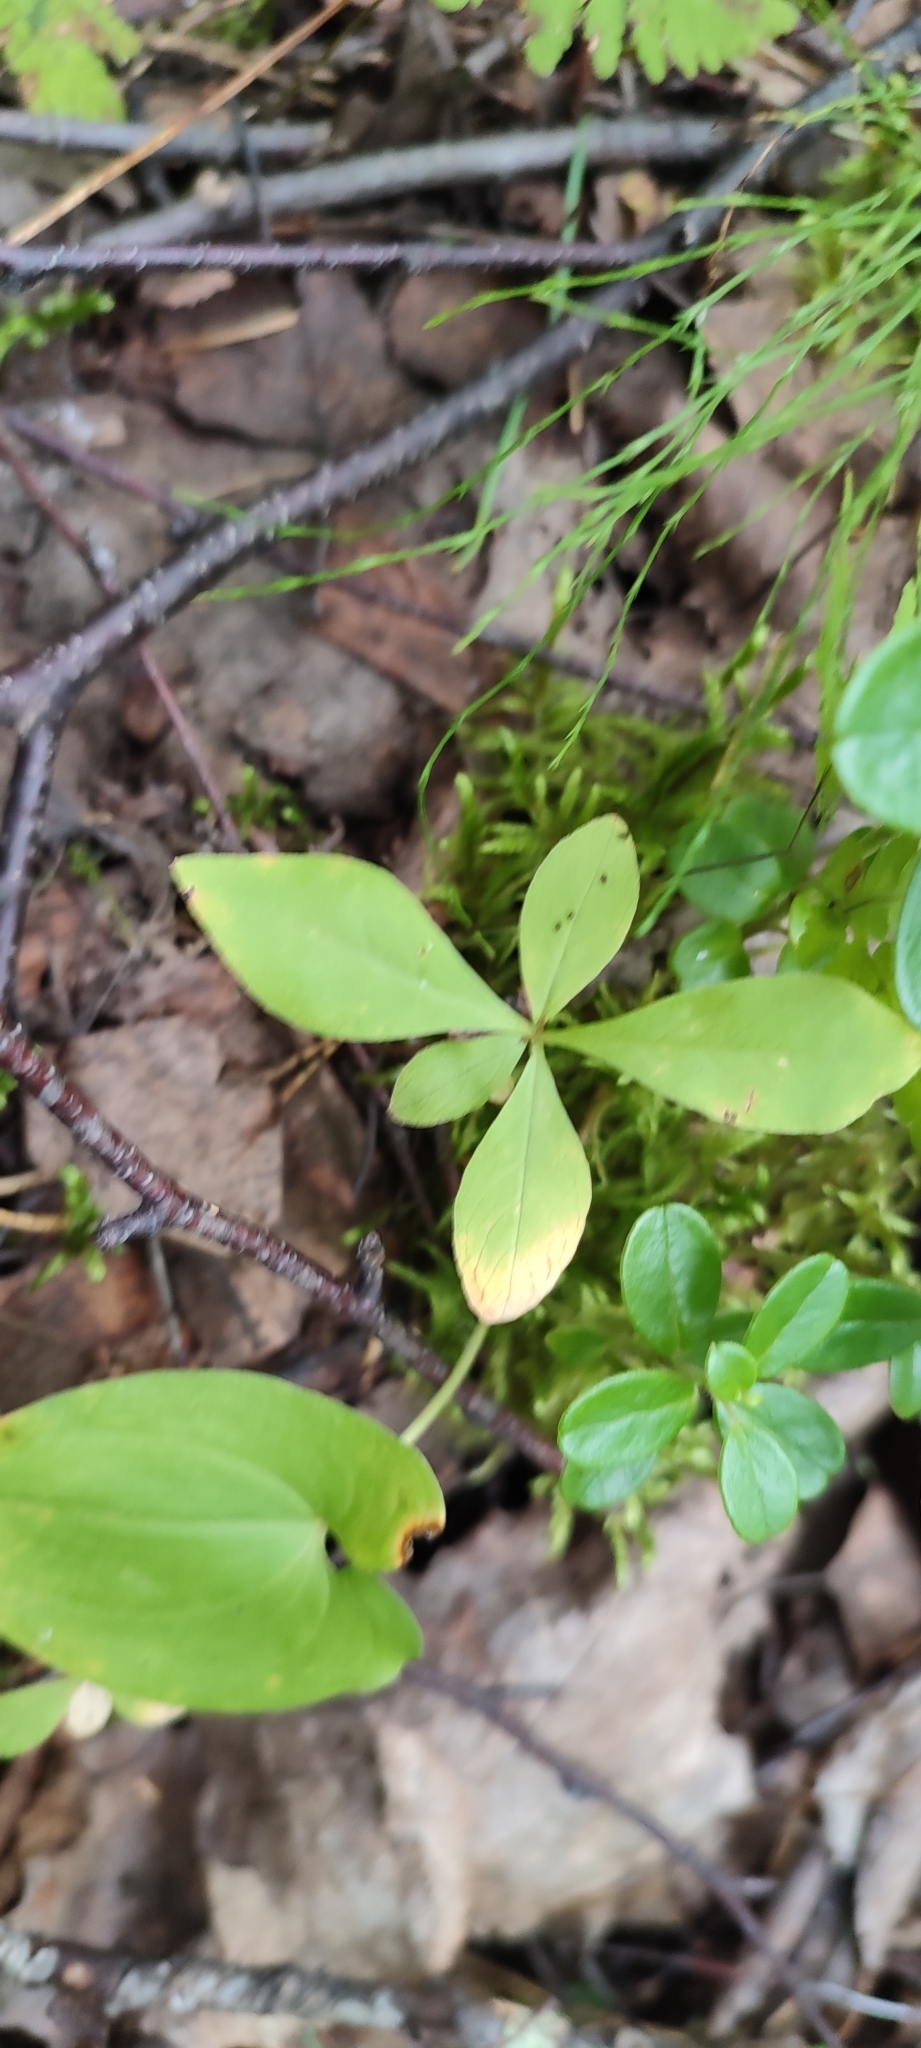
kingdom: Plantae
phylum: Tracheophyta
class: Magnoliopsida
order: Ericales
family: Primulaceae
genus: Lysimachia
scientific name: Lysimachia europaea
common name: Arctic starflower
